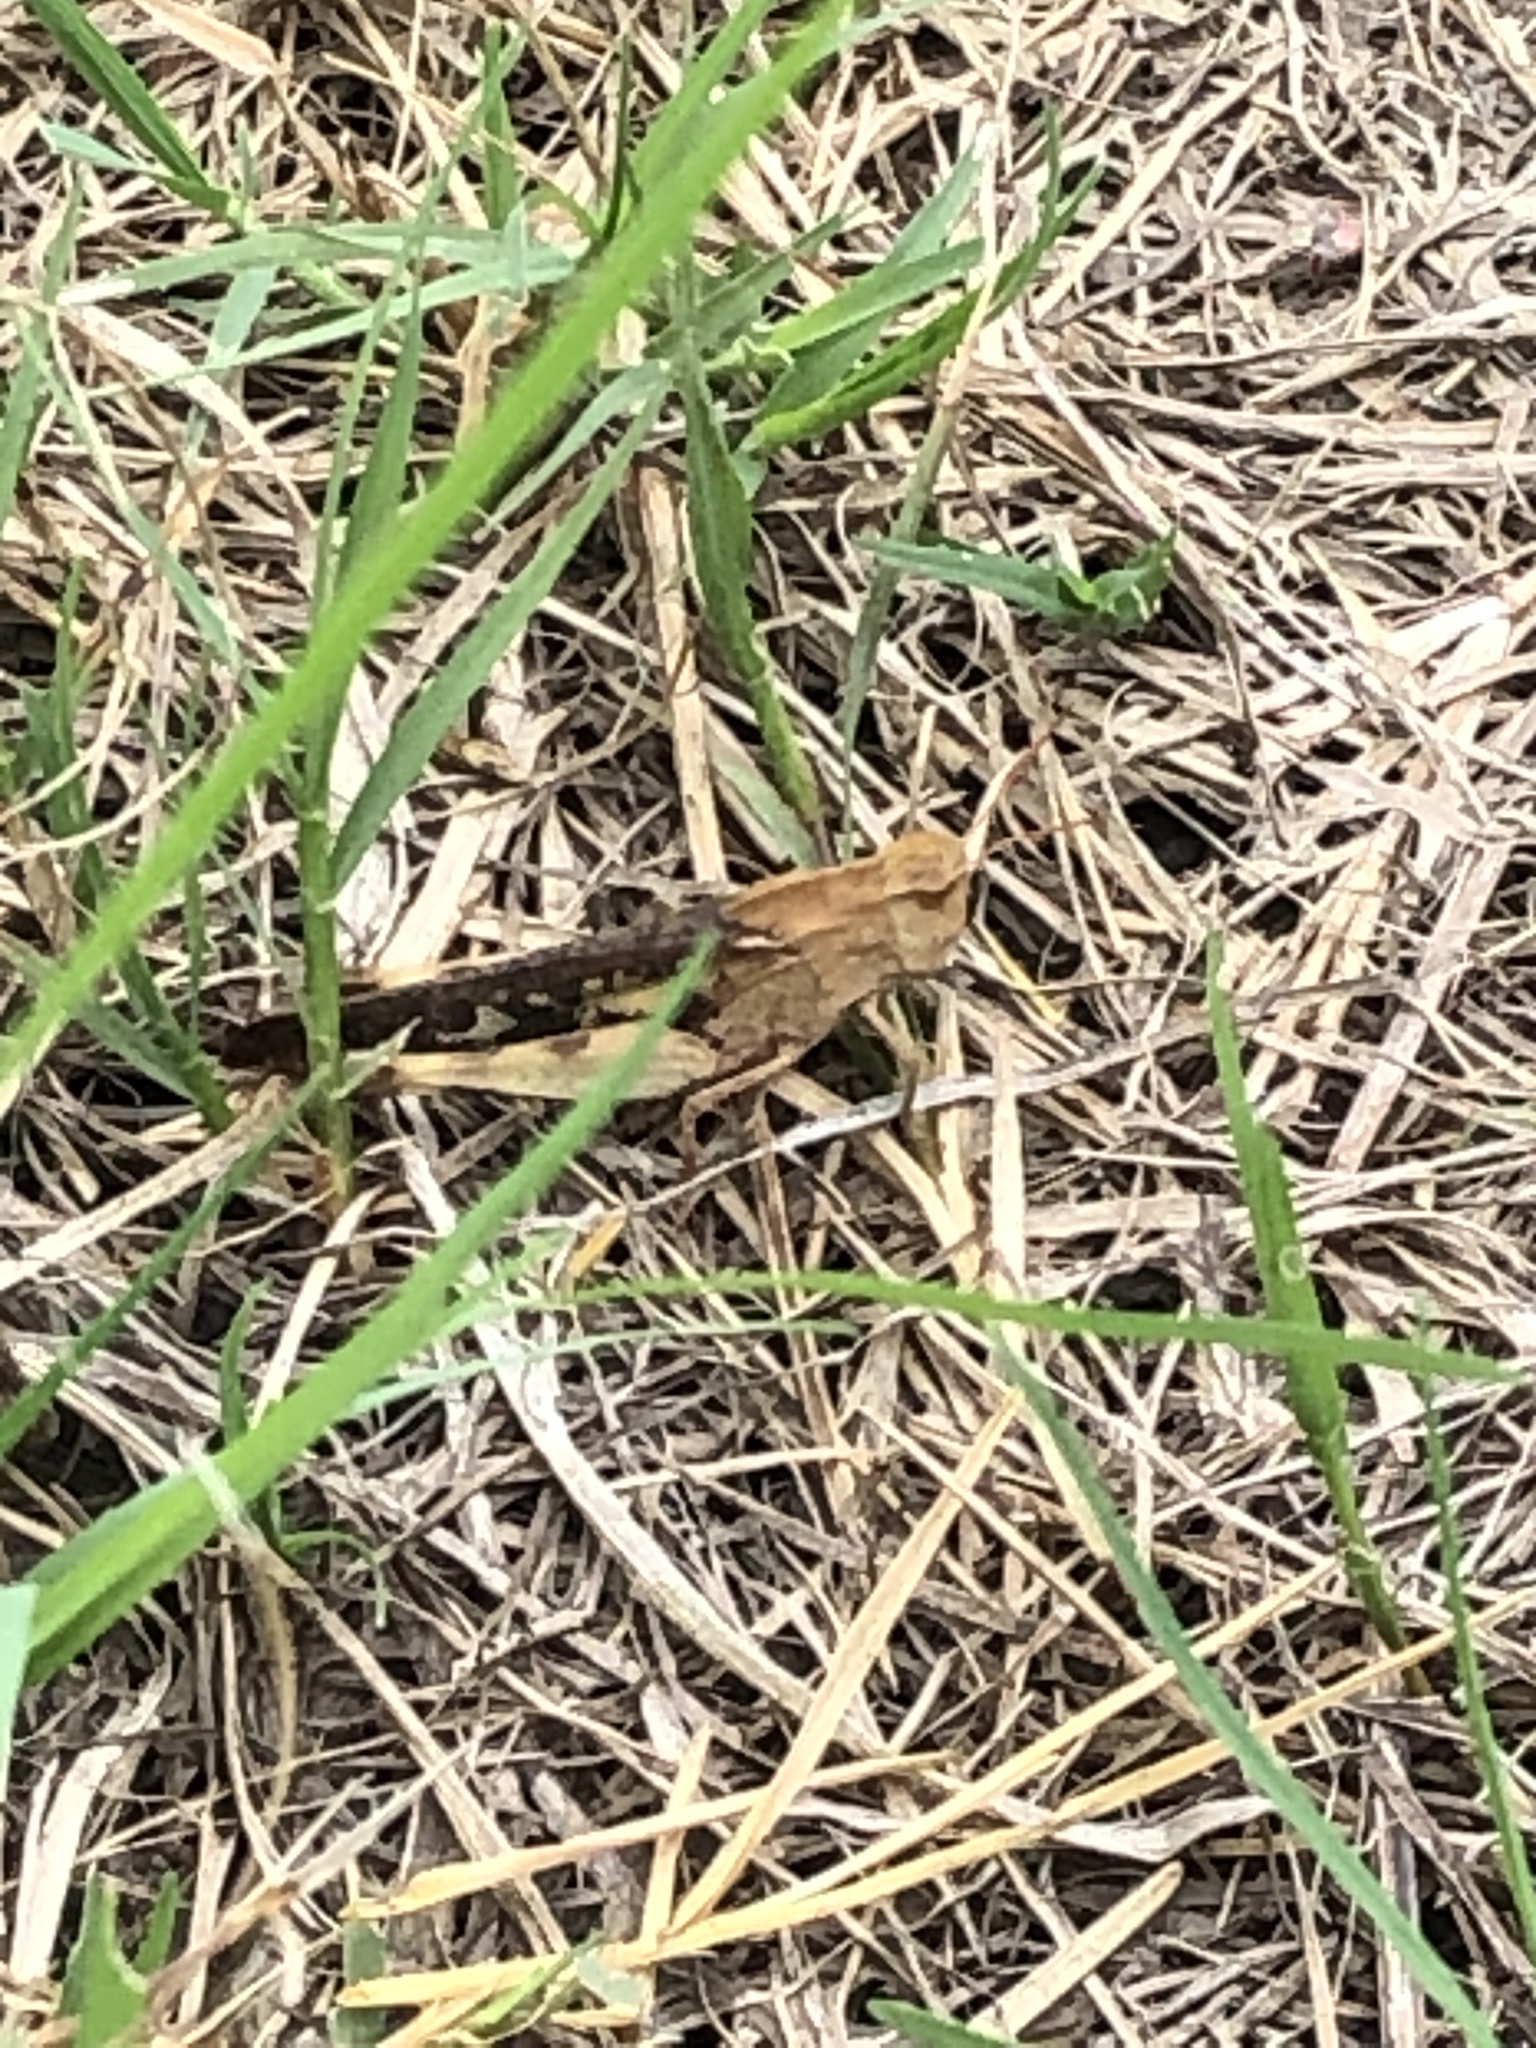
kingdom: Animalia
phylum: Arthropoda
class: Insecta
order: Orthoptera
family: Acrididae
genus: Chortophaga
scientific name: Chortophaga viridifasciata
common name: Green-striped grasshopper
